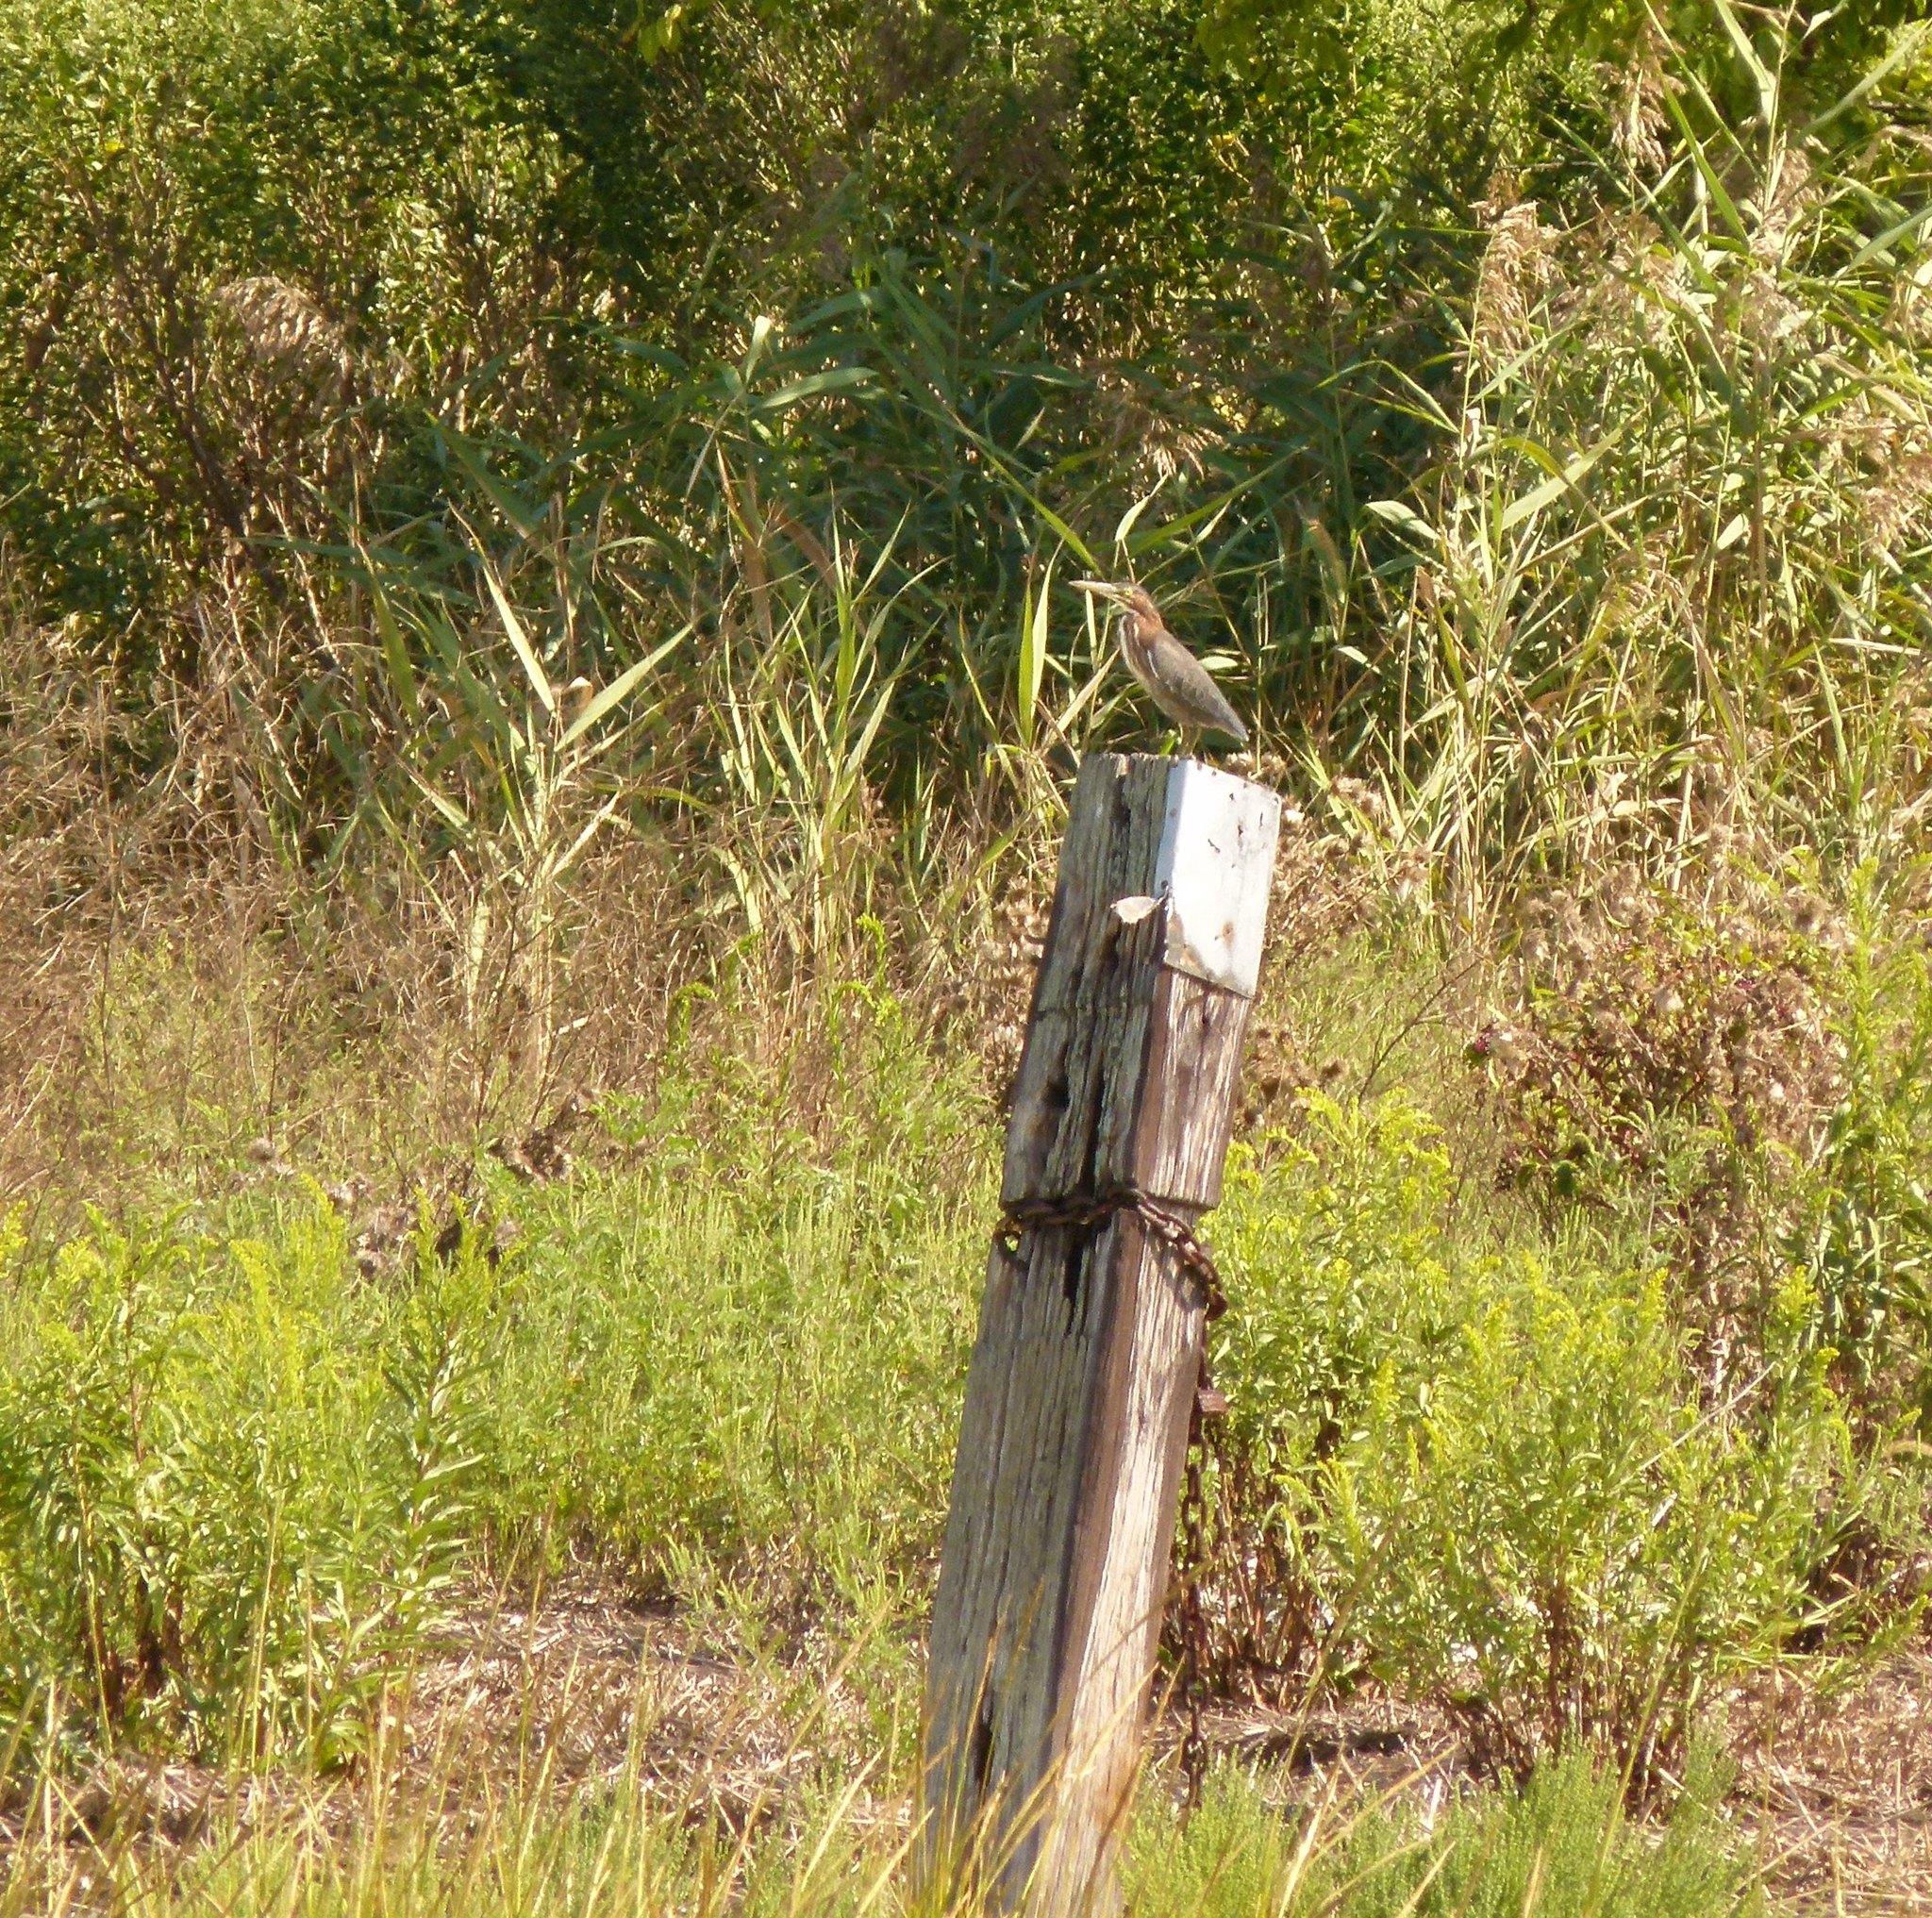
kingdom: Animalia
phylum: Chordata
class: Aves
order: Pelecaniformes
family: Ardeidae
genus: Butorides
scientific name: Butorides virescens
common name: Green heron
